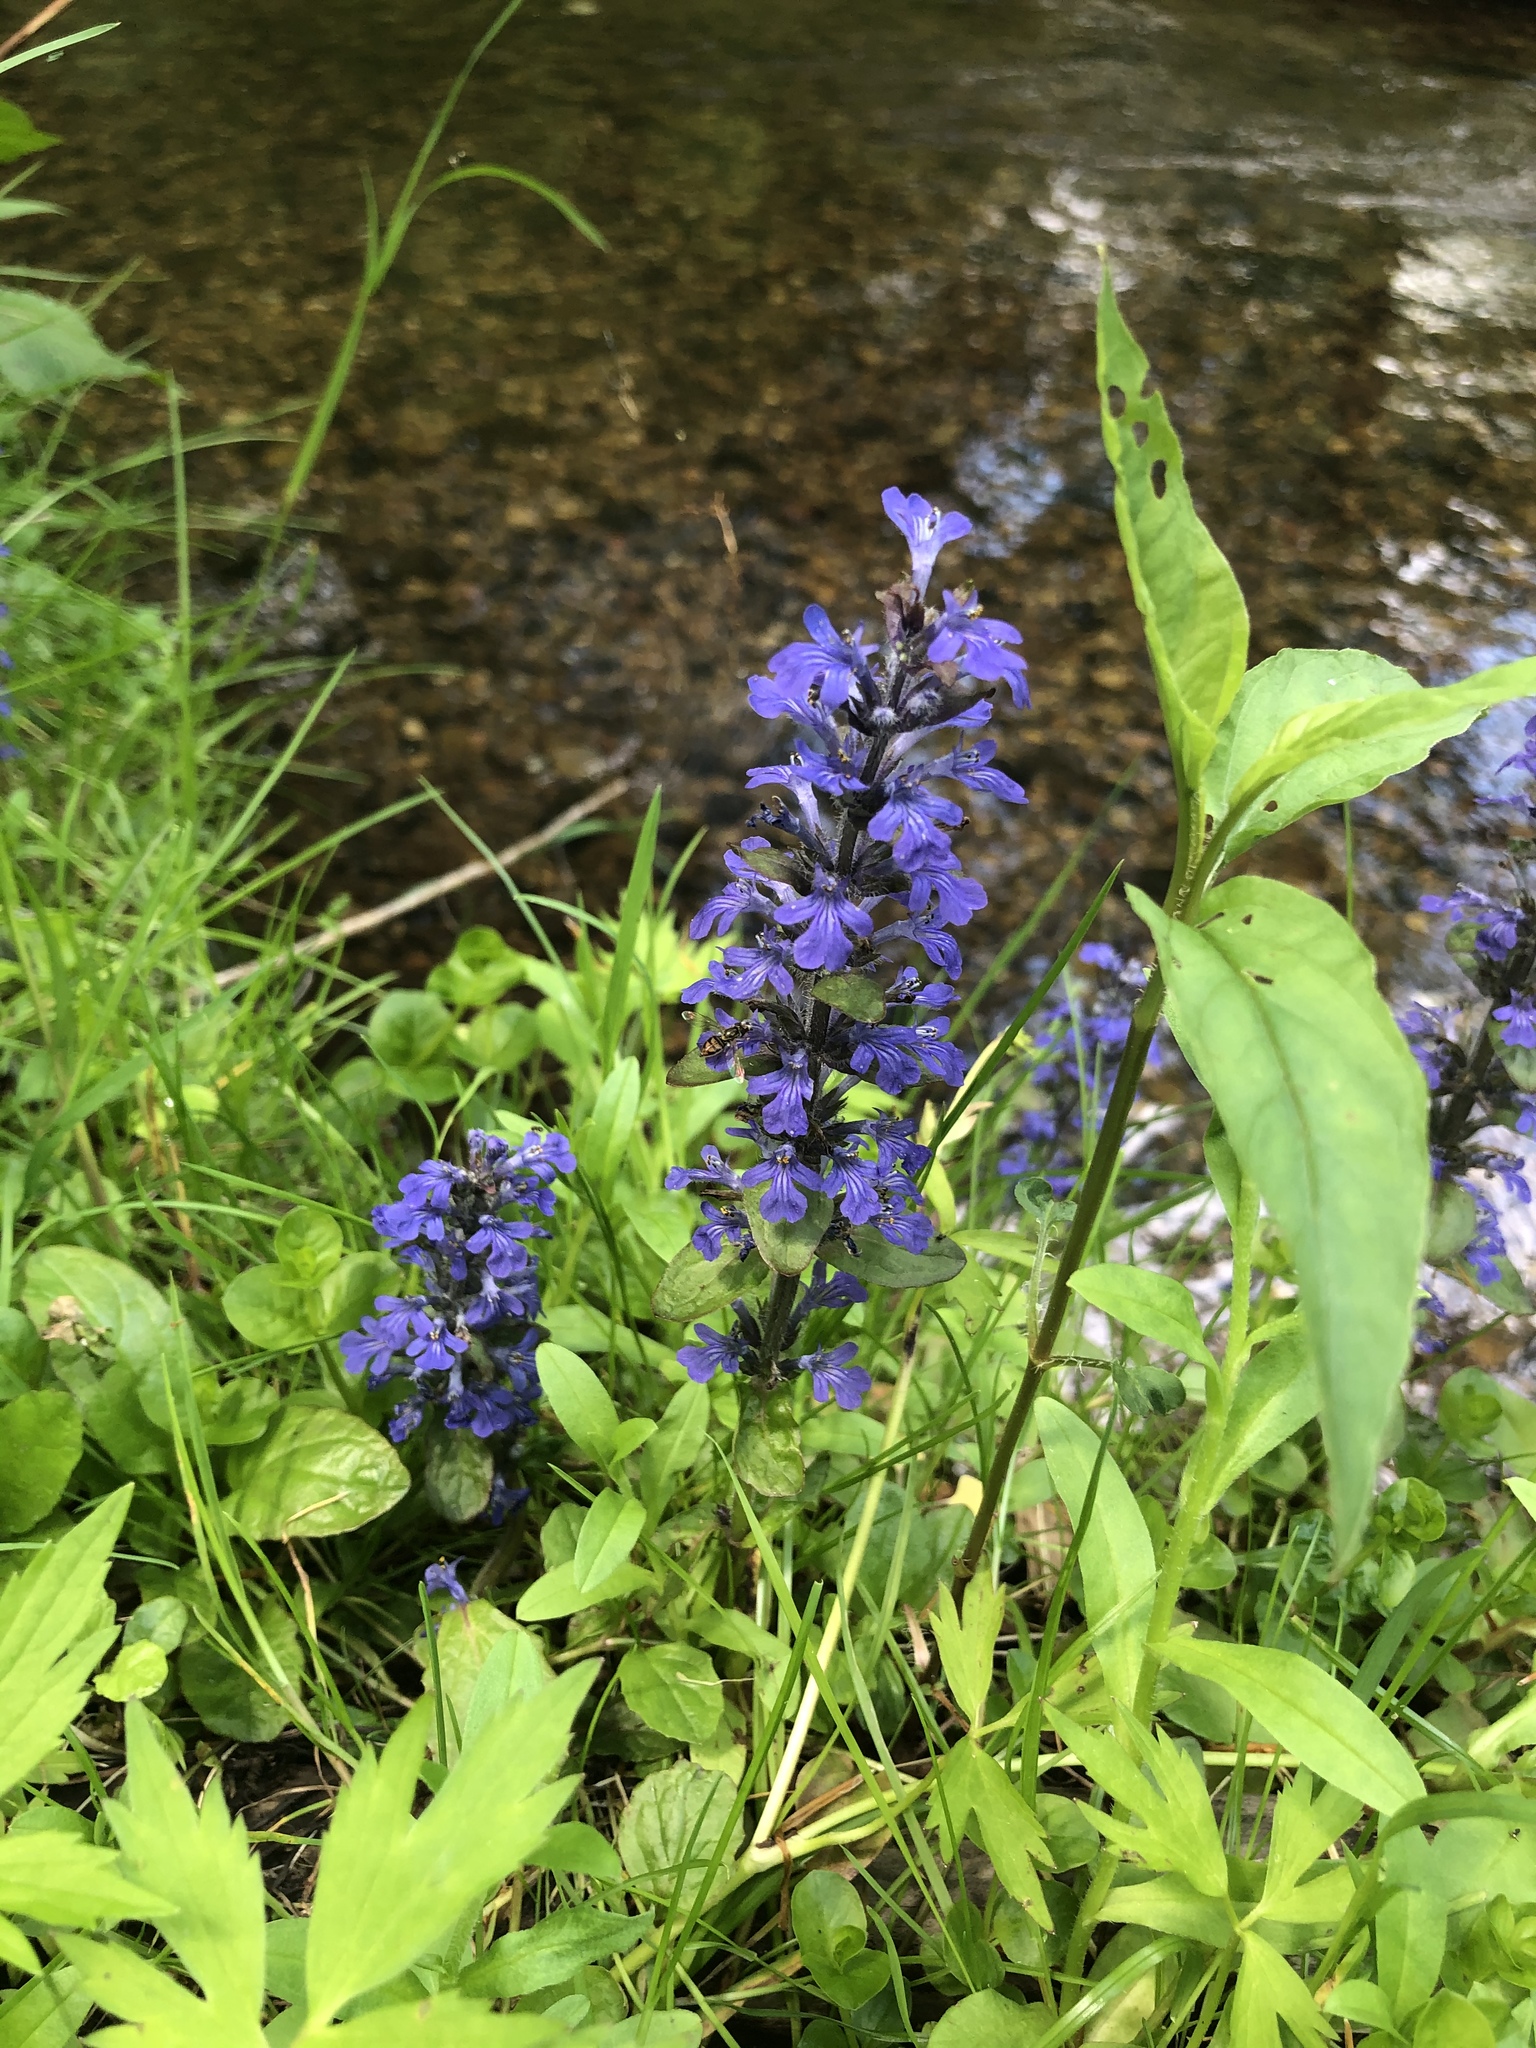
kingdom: Plantae
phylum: Tracheophyta
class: Magnoliopsida
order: Lamiales
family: Lamiaceae
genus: Ajuga
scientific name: Ajuga reptans
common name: Bugle
